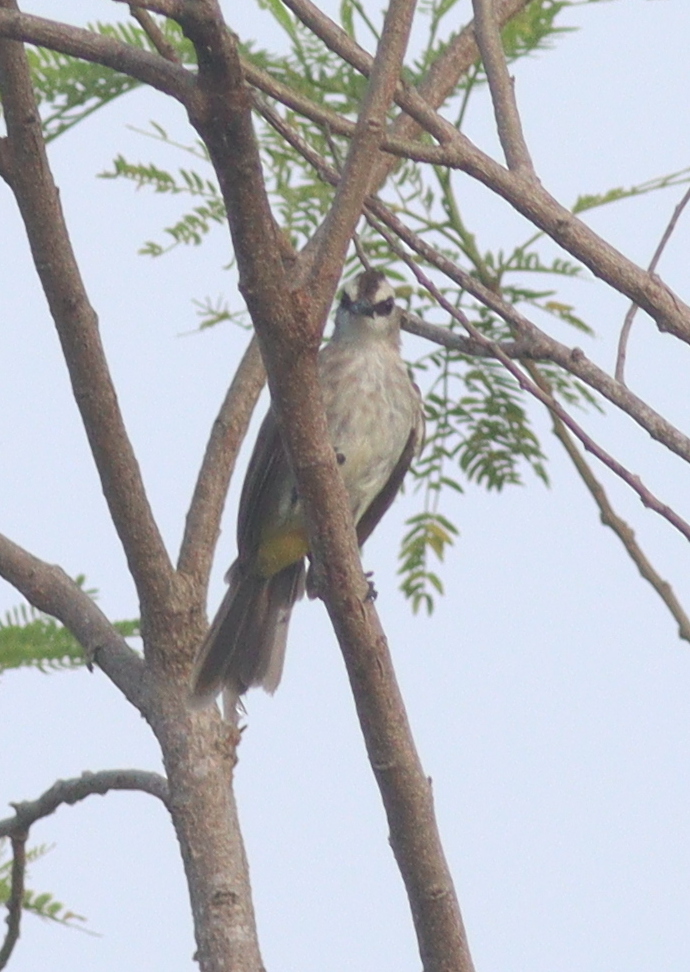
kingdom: Animalia
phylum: Chordata
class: Aves
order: Passeriformes
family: Pycnonotidae
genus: Pycnonotus
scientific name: Pycnonotus goiavier
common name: Yellow-vented bulbul
